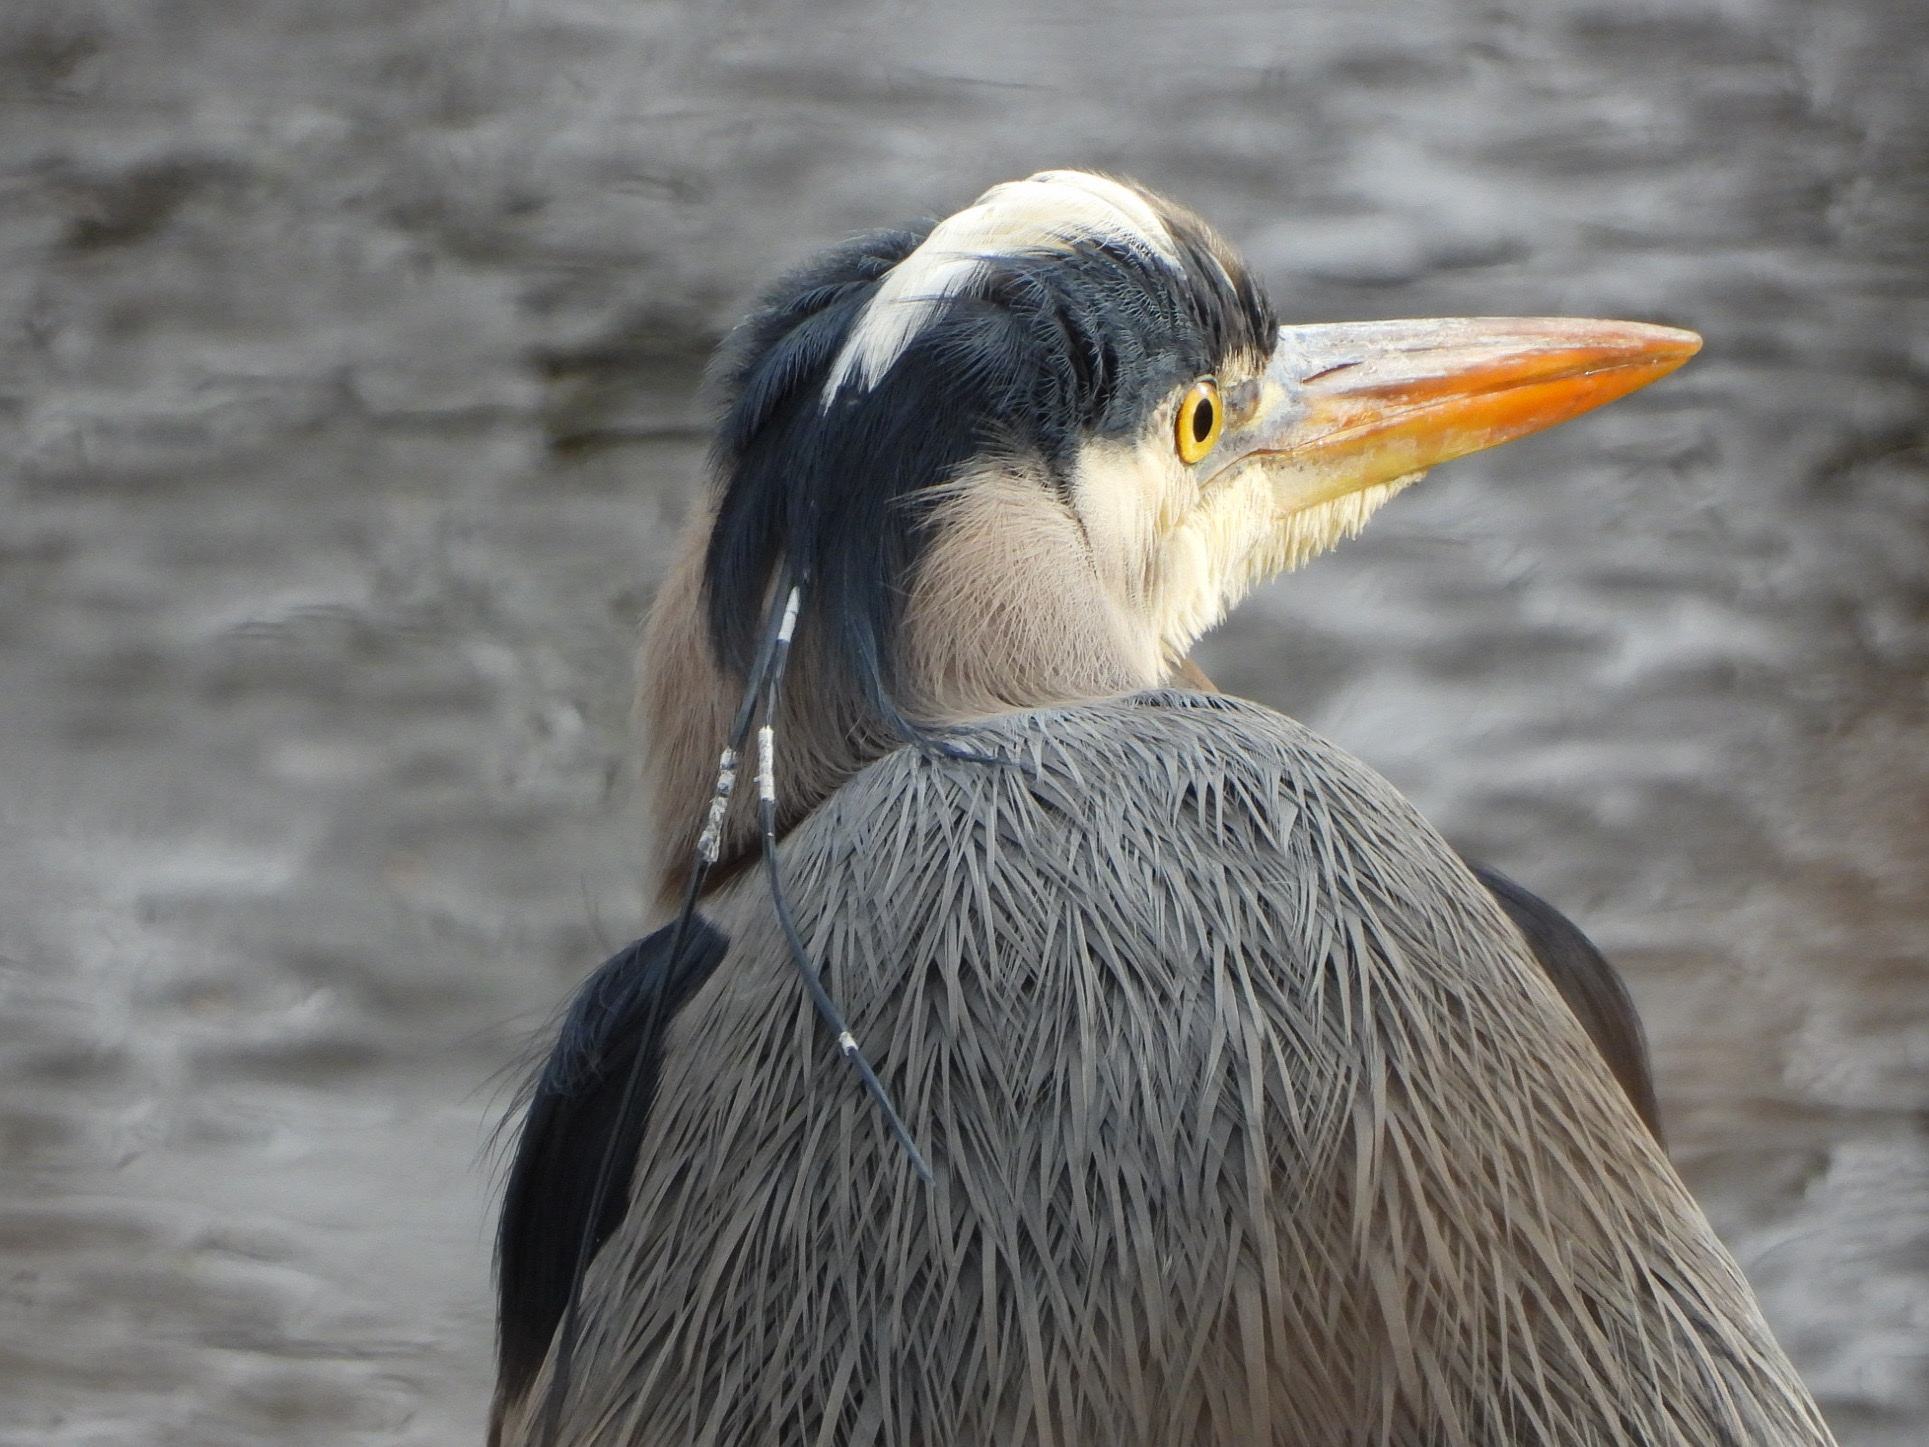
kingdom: Animalia
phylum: Chordata
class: Aves
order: Pelecaniformes
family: Ardeidae
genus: Ardea
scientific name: Ardea herodias
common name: Great blue heron
